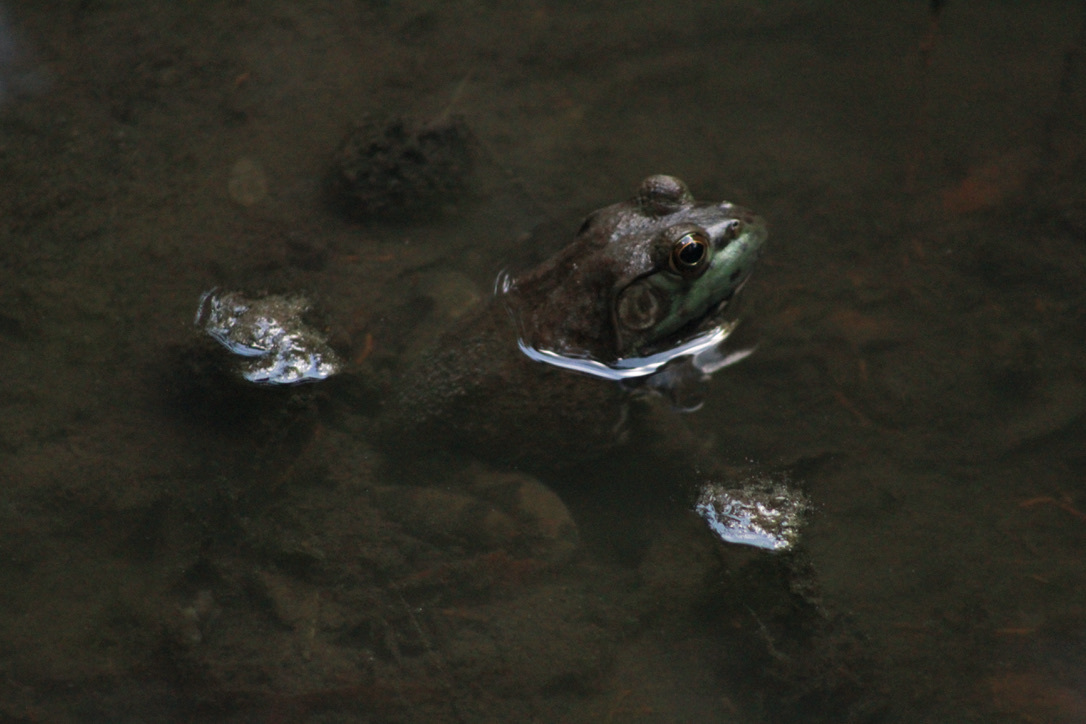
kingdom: Animalia
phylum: Chordata
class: Amphibia
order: Anura
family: Ranidae
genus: Lithobates
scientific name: Lithobates catesbeianus
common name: American bullfrog
